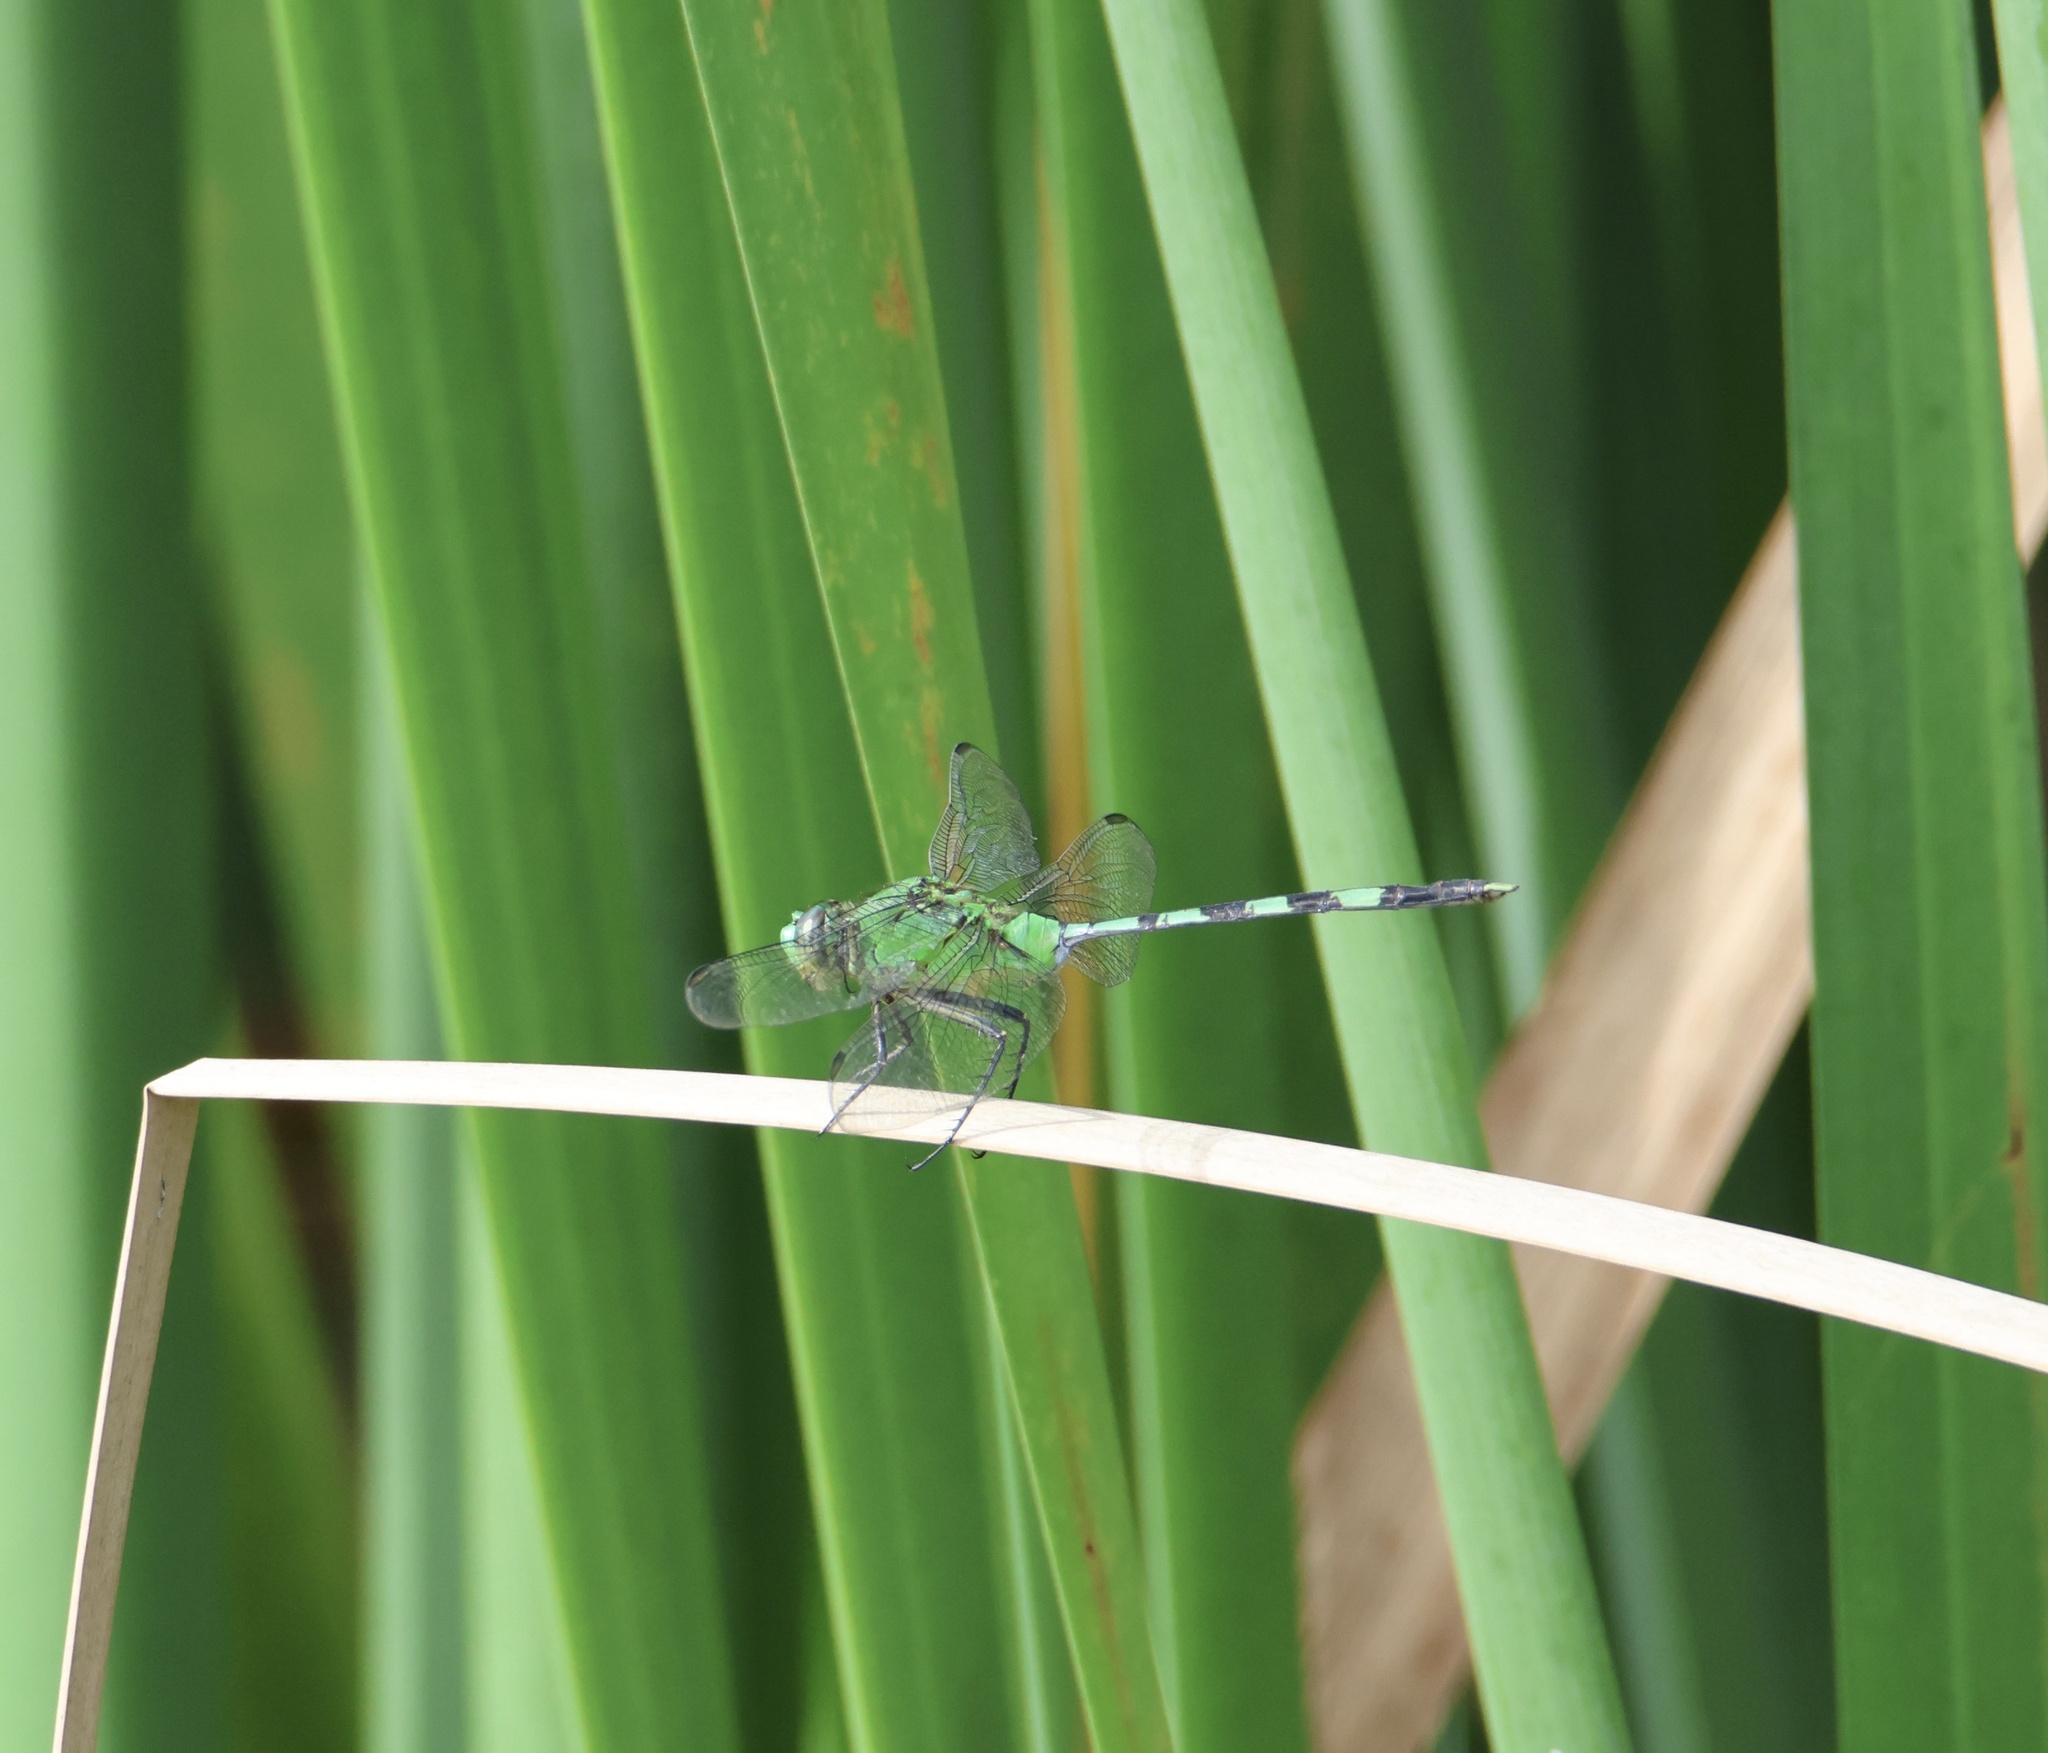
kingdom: Animalia
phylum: Arthropoda
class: Insecta
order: Odonata
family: Libellulidae
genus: Erythemis
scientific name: Erythemis vesiculosa
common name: Great pondhawk
